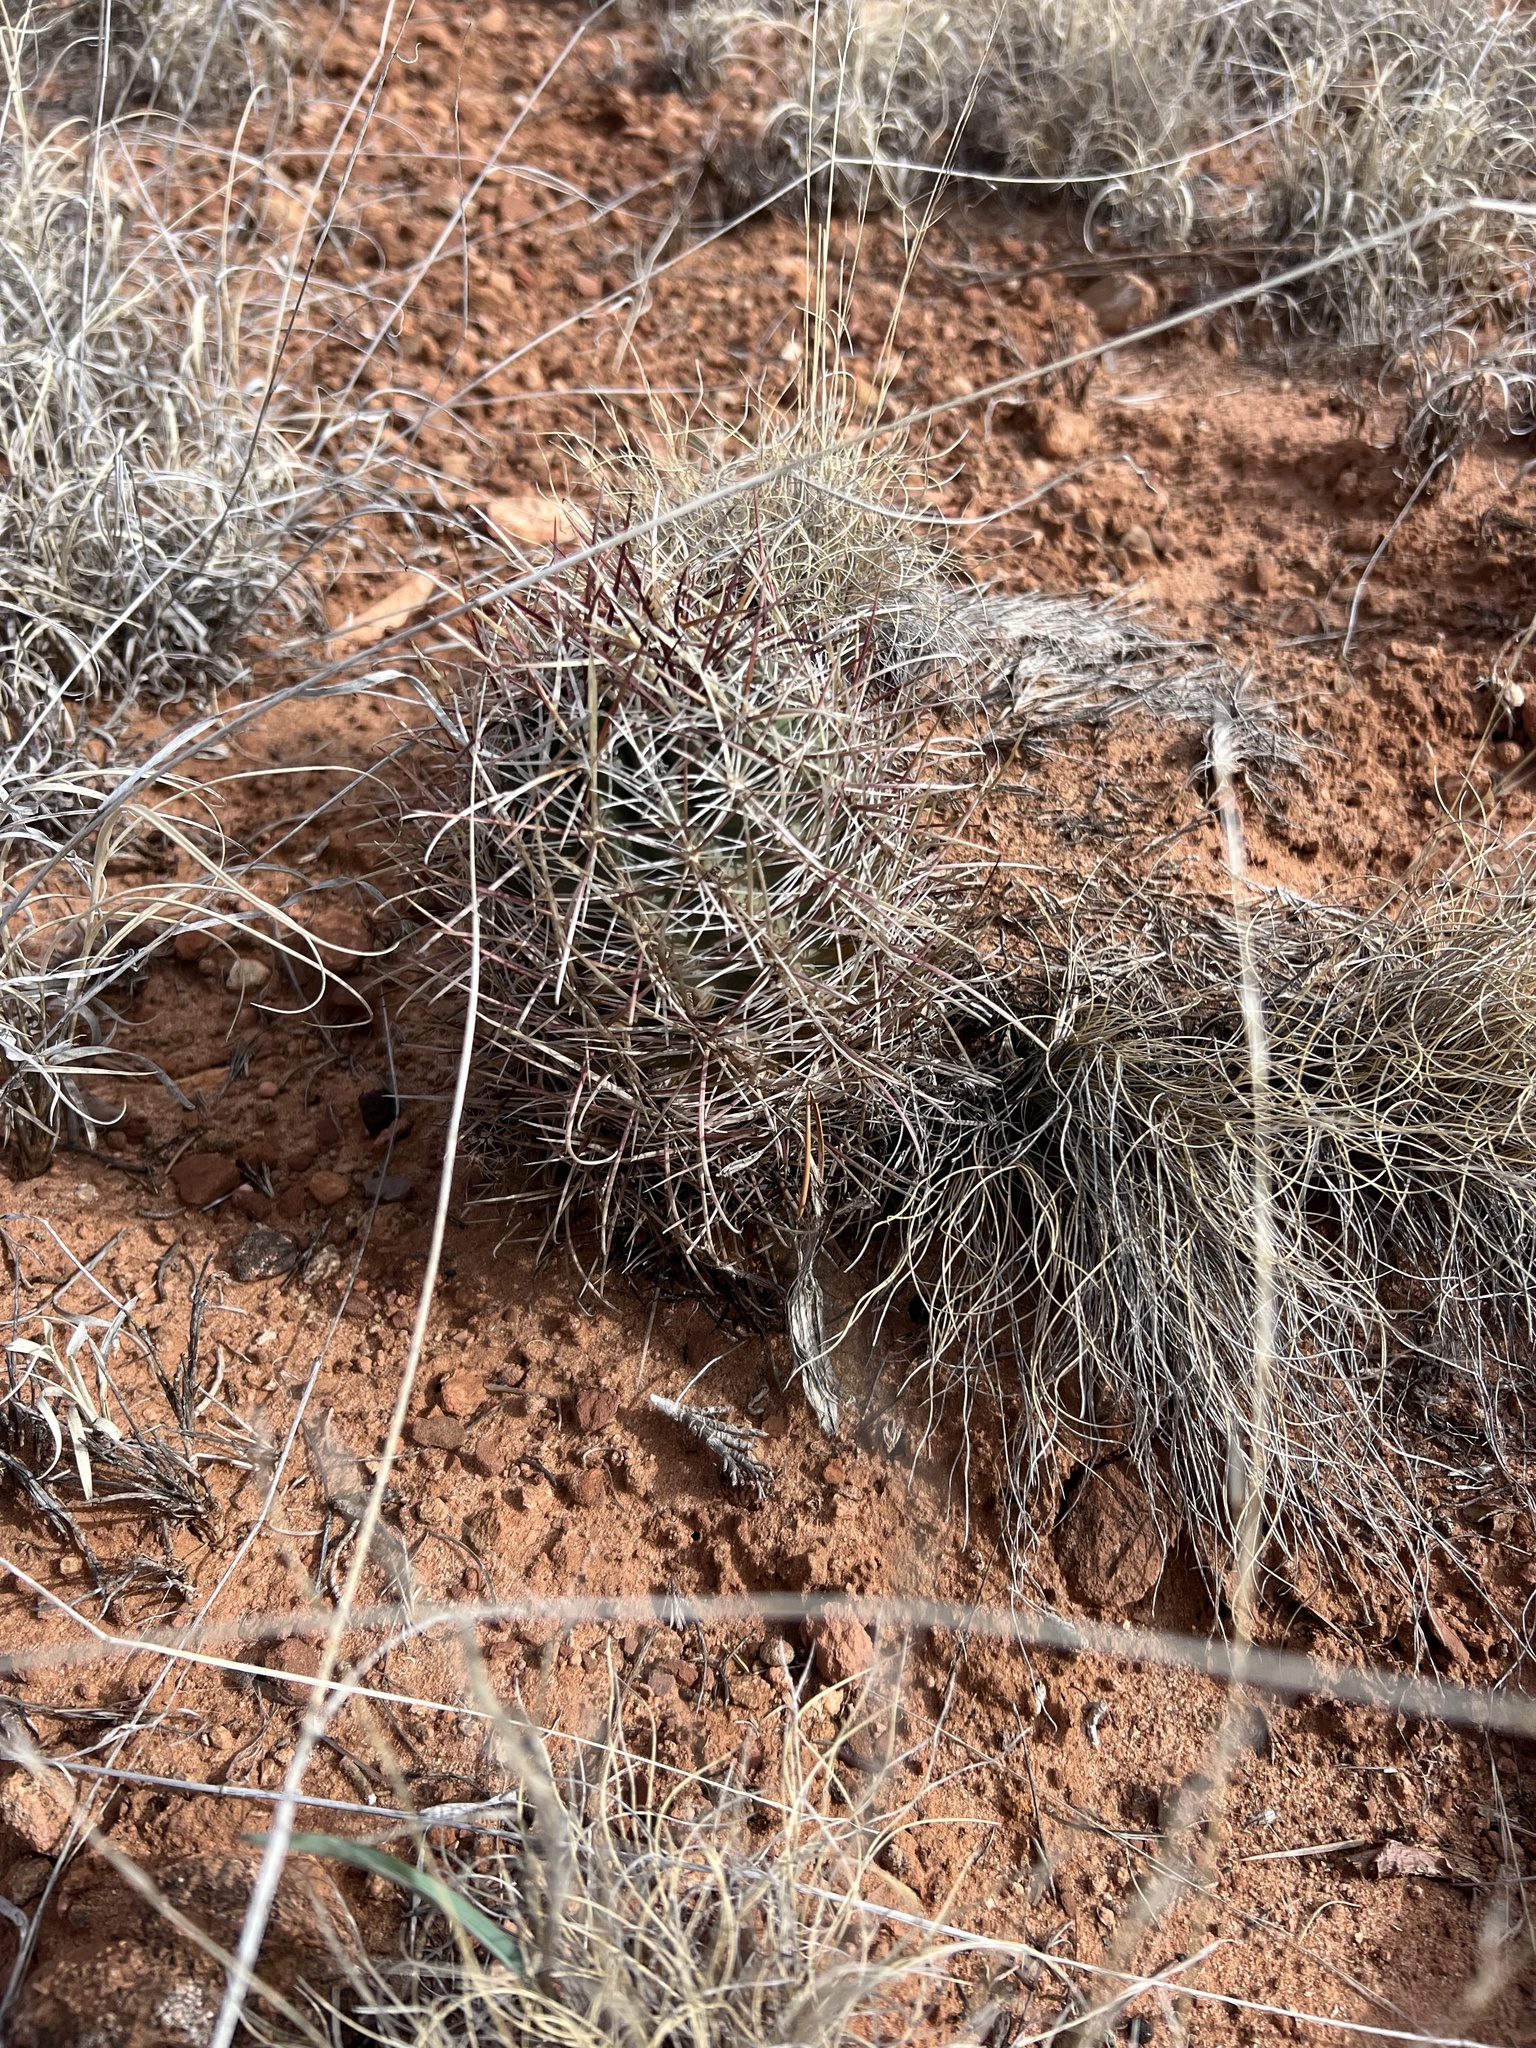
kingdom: Plantae
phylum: Tracheophyta
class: Magnoliopsida
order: Caryophyllales
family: Cactaceae
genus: Sclerocactus
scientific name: Sclerocactus parviflorus
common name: Small-flower fishhook cactus
